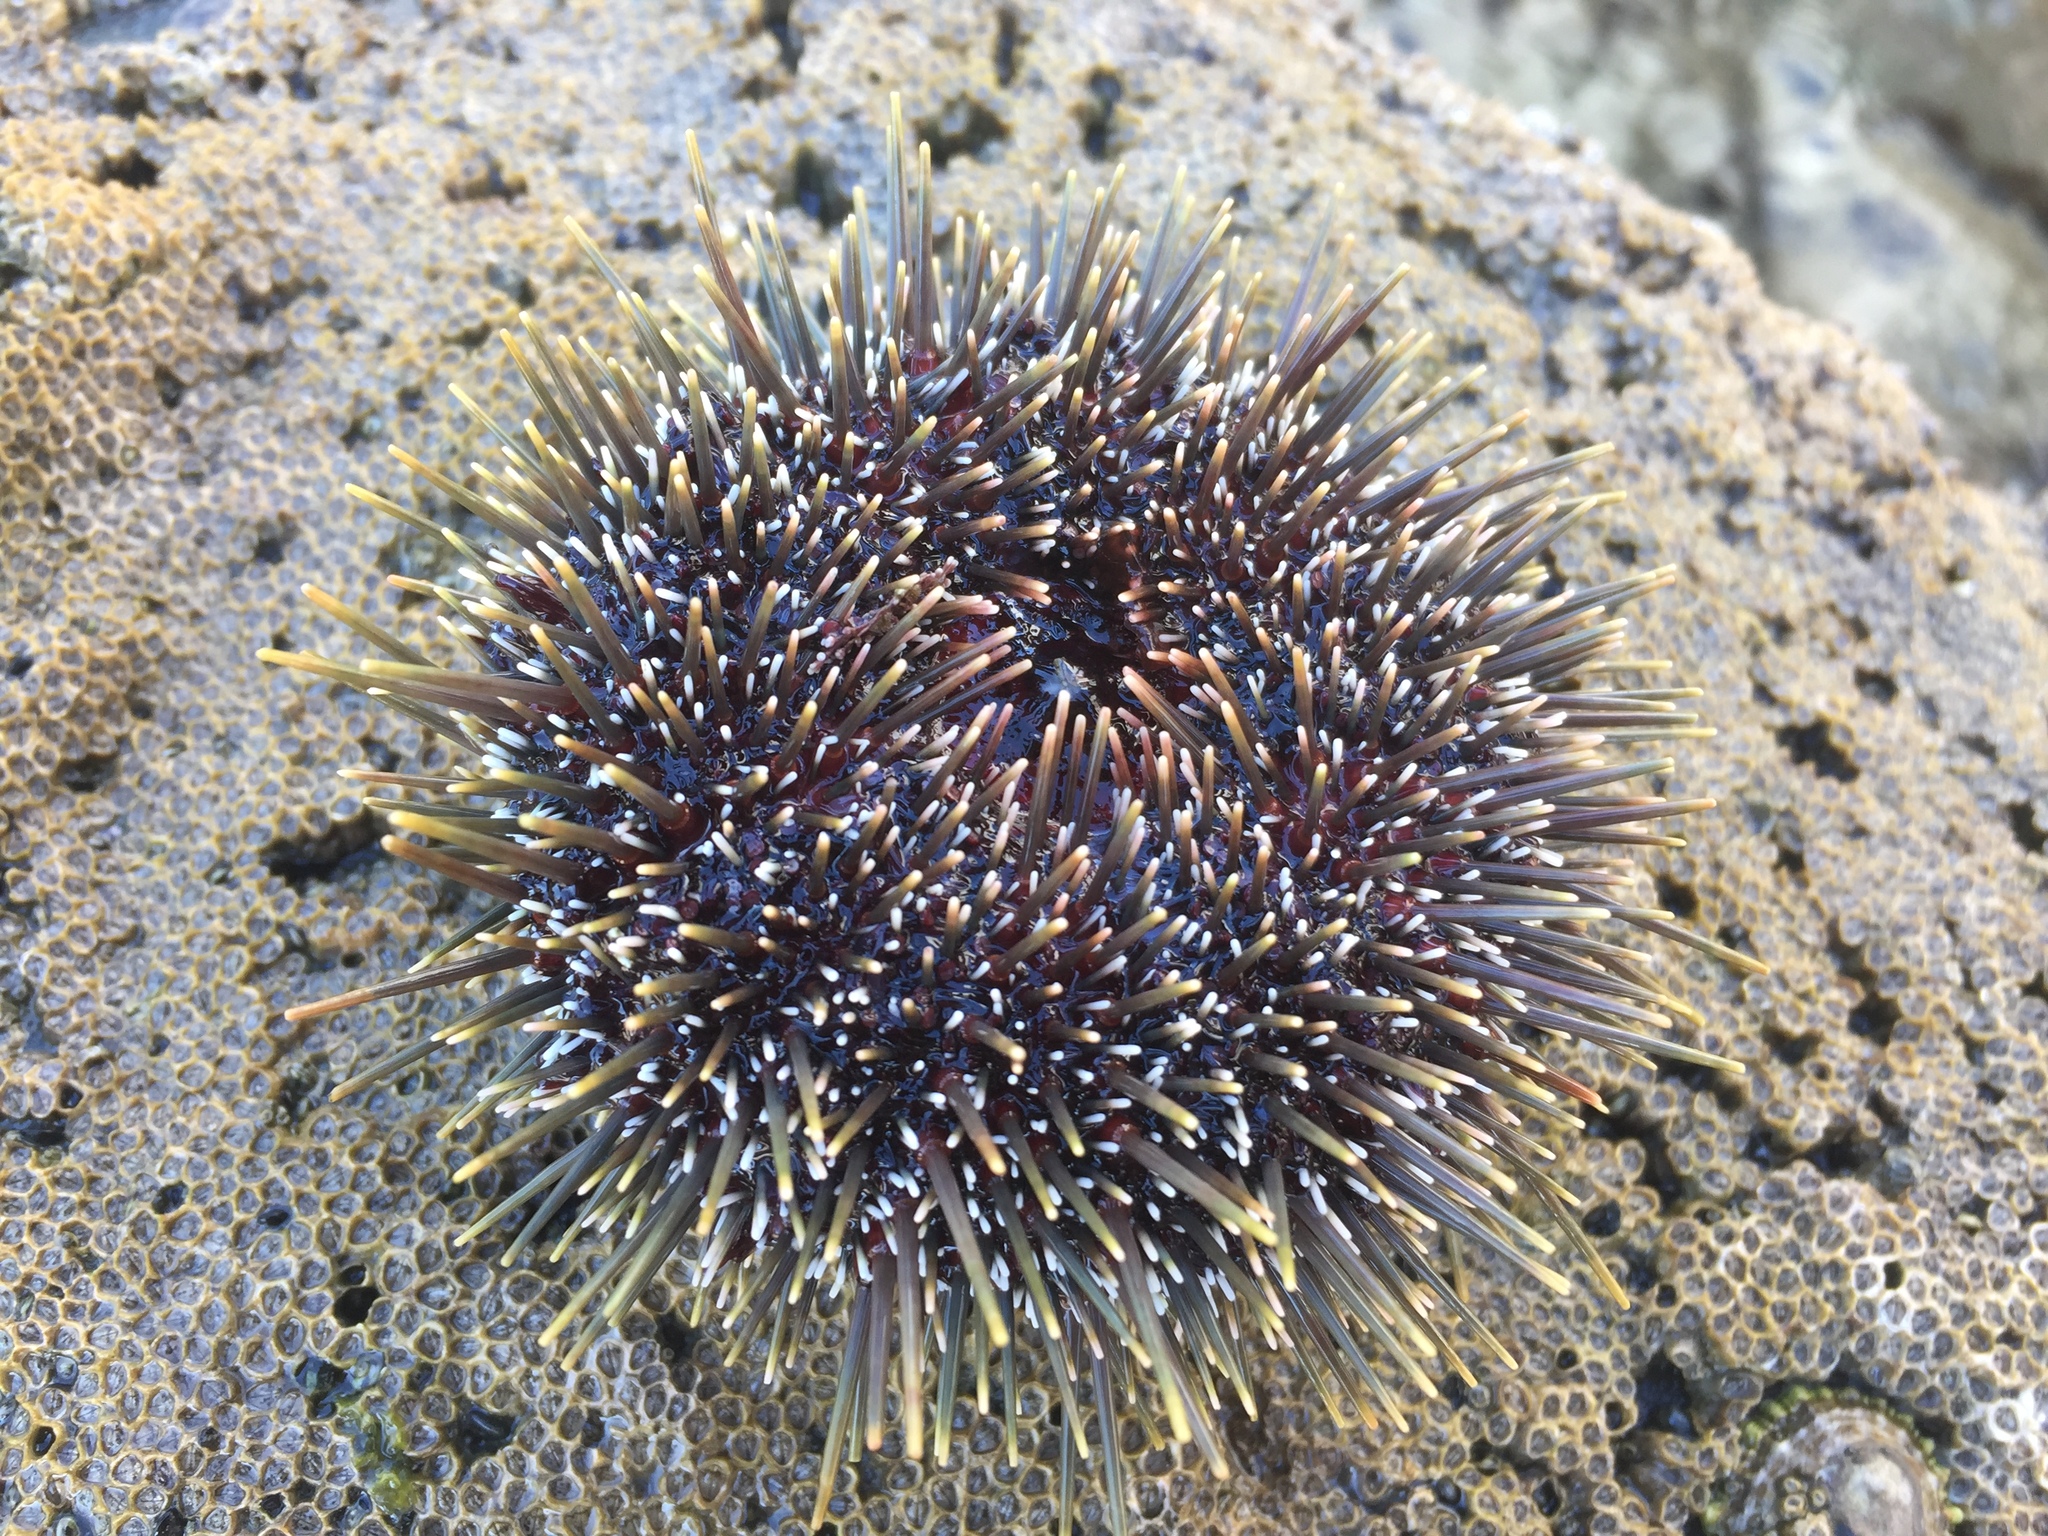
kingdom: Animalia
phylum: Echinodermata
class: Echinoidea
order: Camarodonta
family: Echinometridae
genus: Evechinus
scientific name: Evechinus chloroticus
